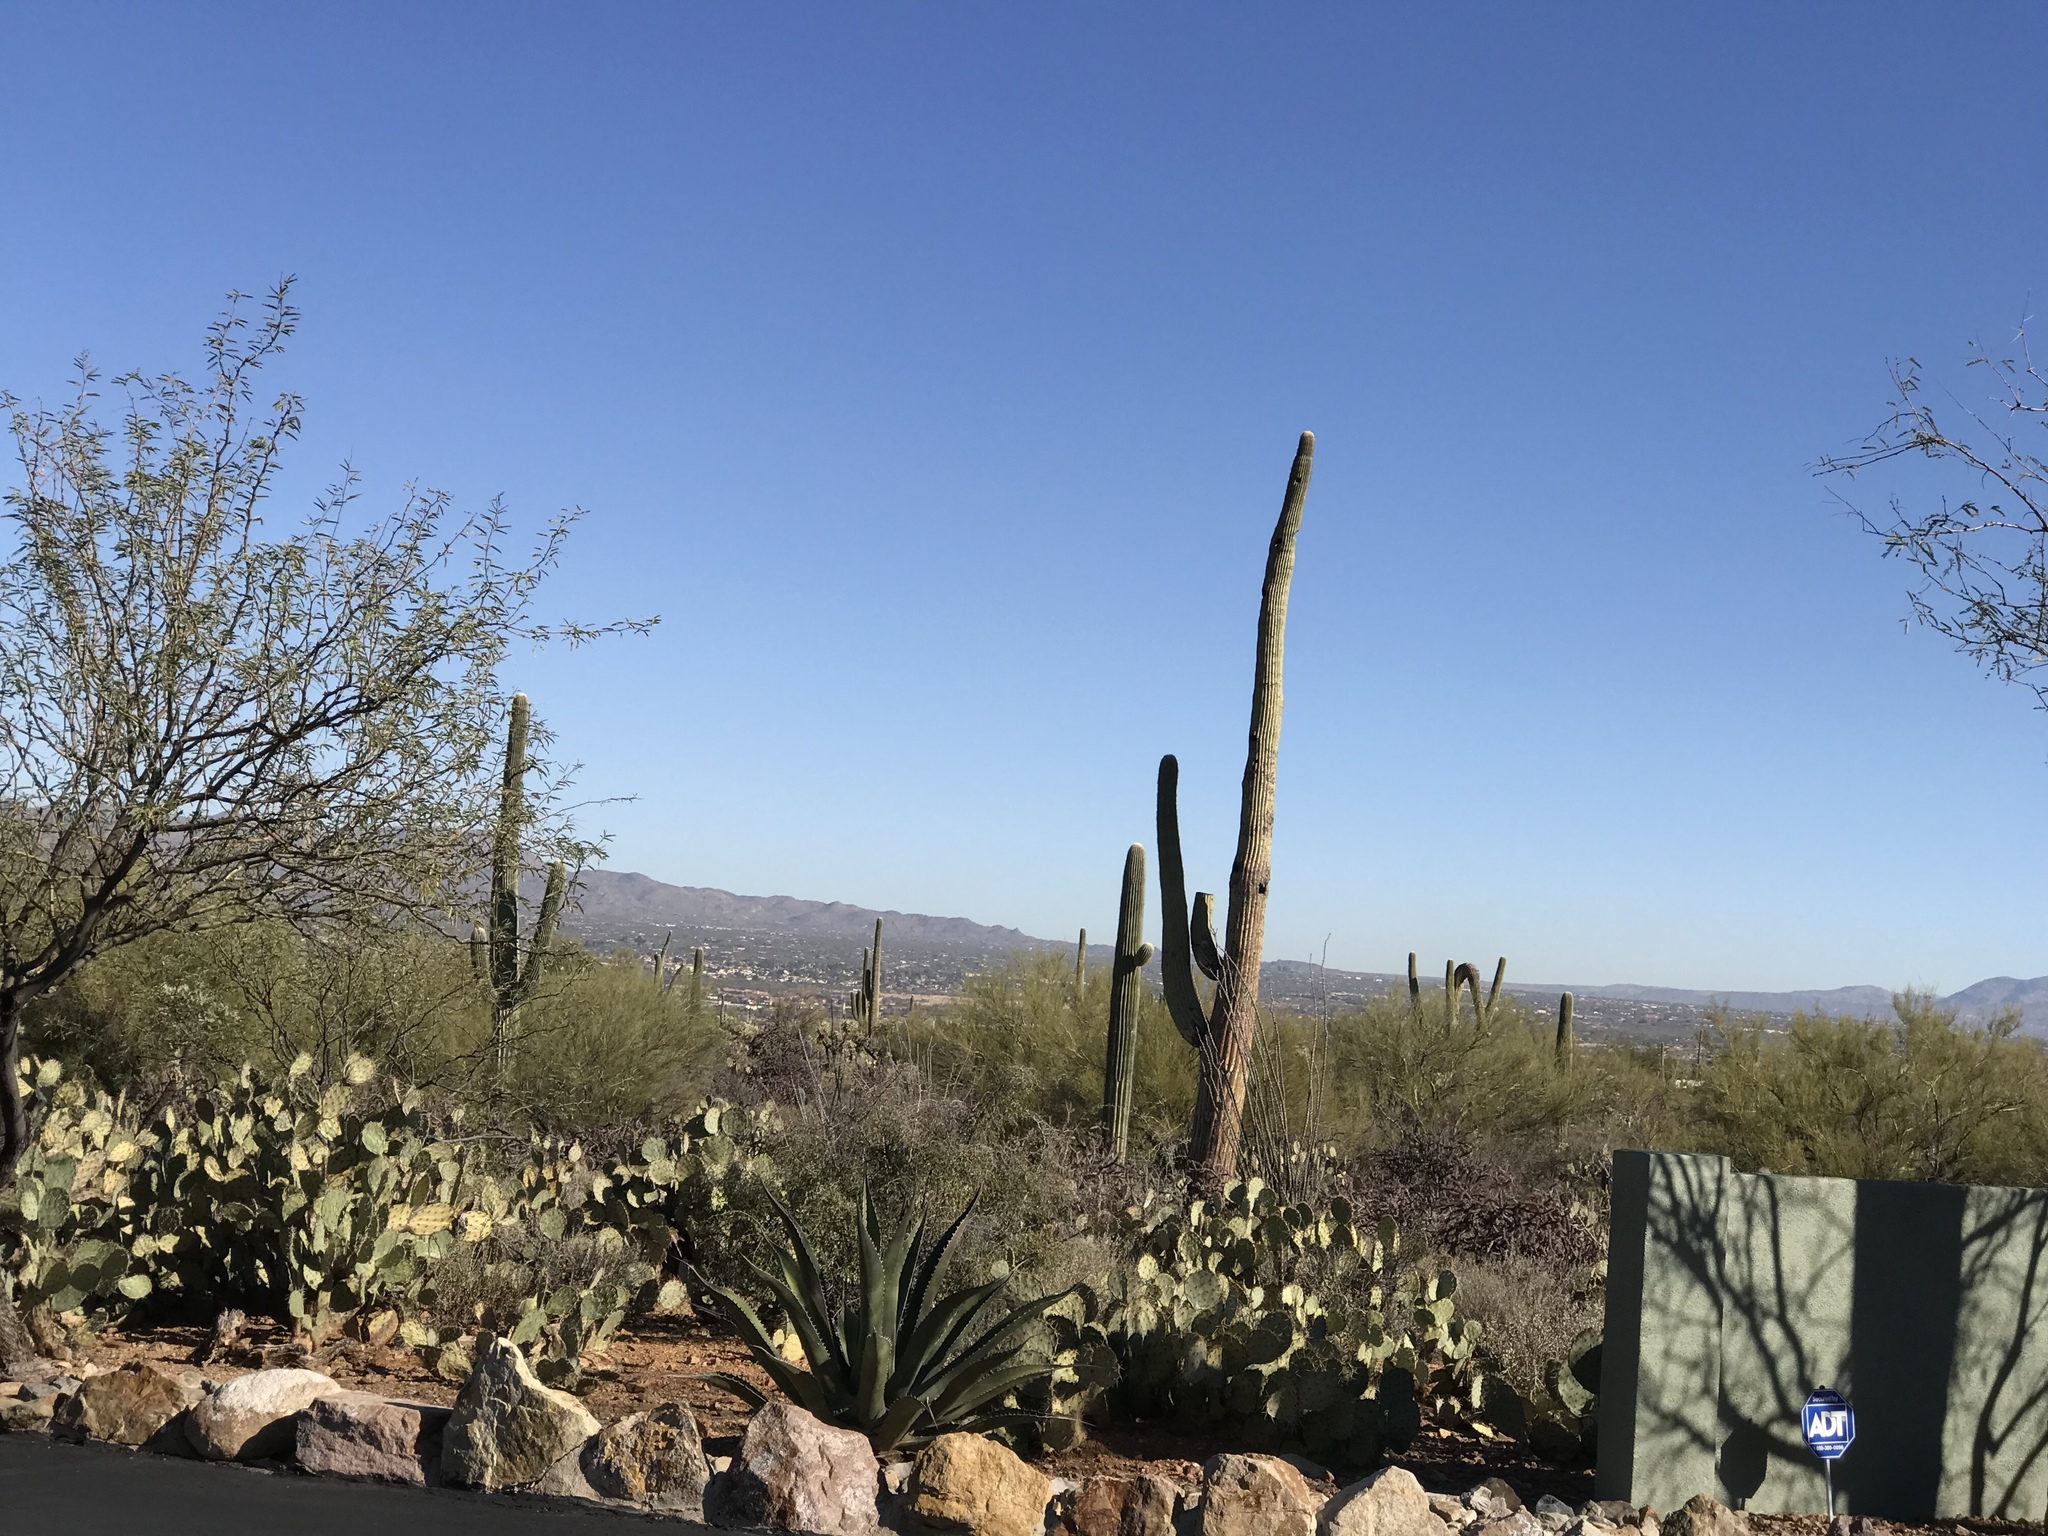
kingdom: Plantae
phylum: Tracheophyta
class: Magnoliopsida
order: Caryophyllales
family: Cactaceae
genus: Carnegiea
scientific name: Carnegiea gigantea
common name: Saguaro
